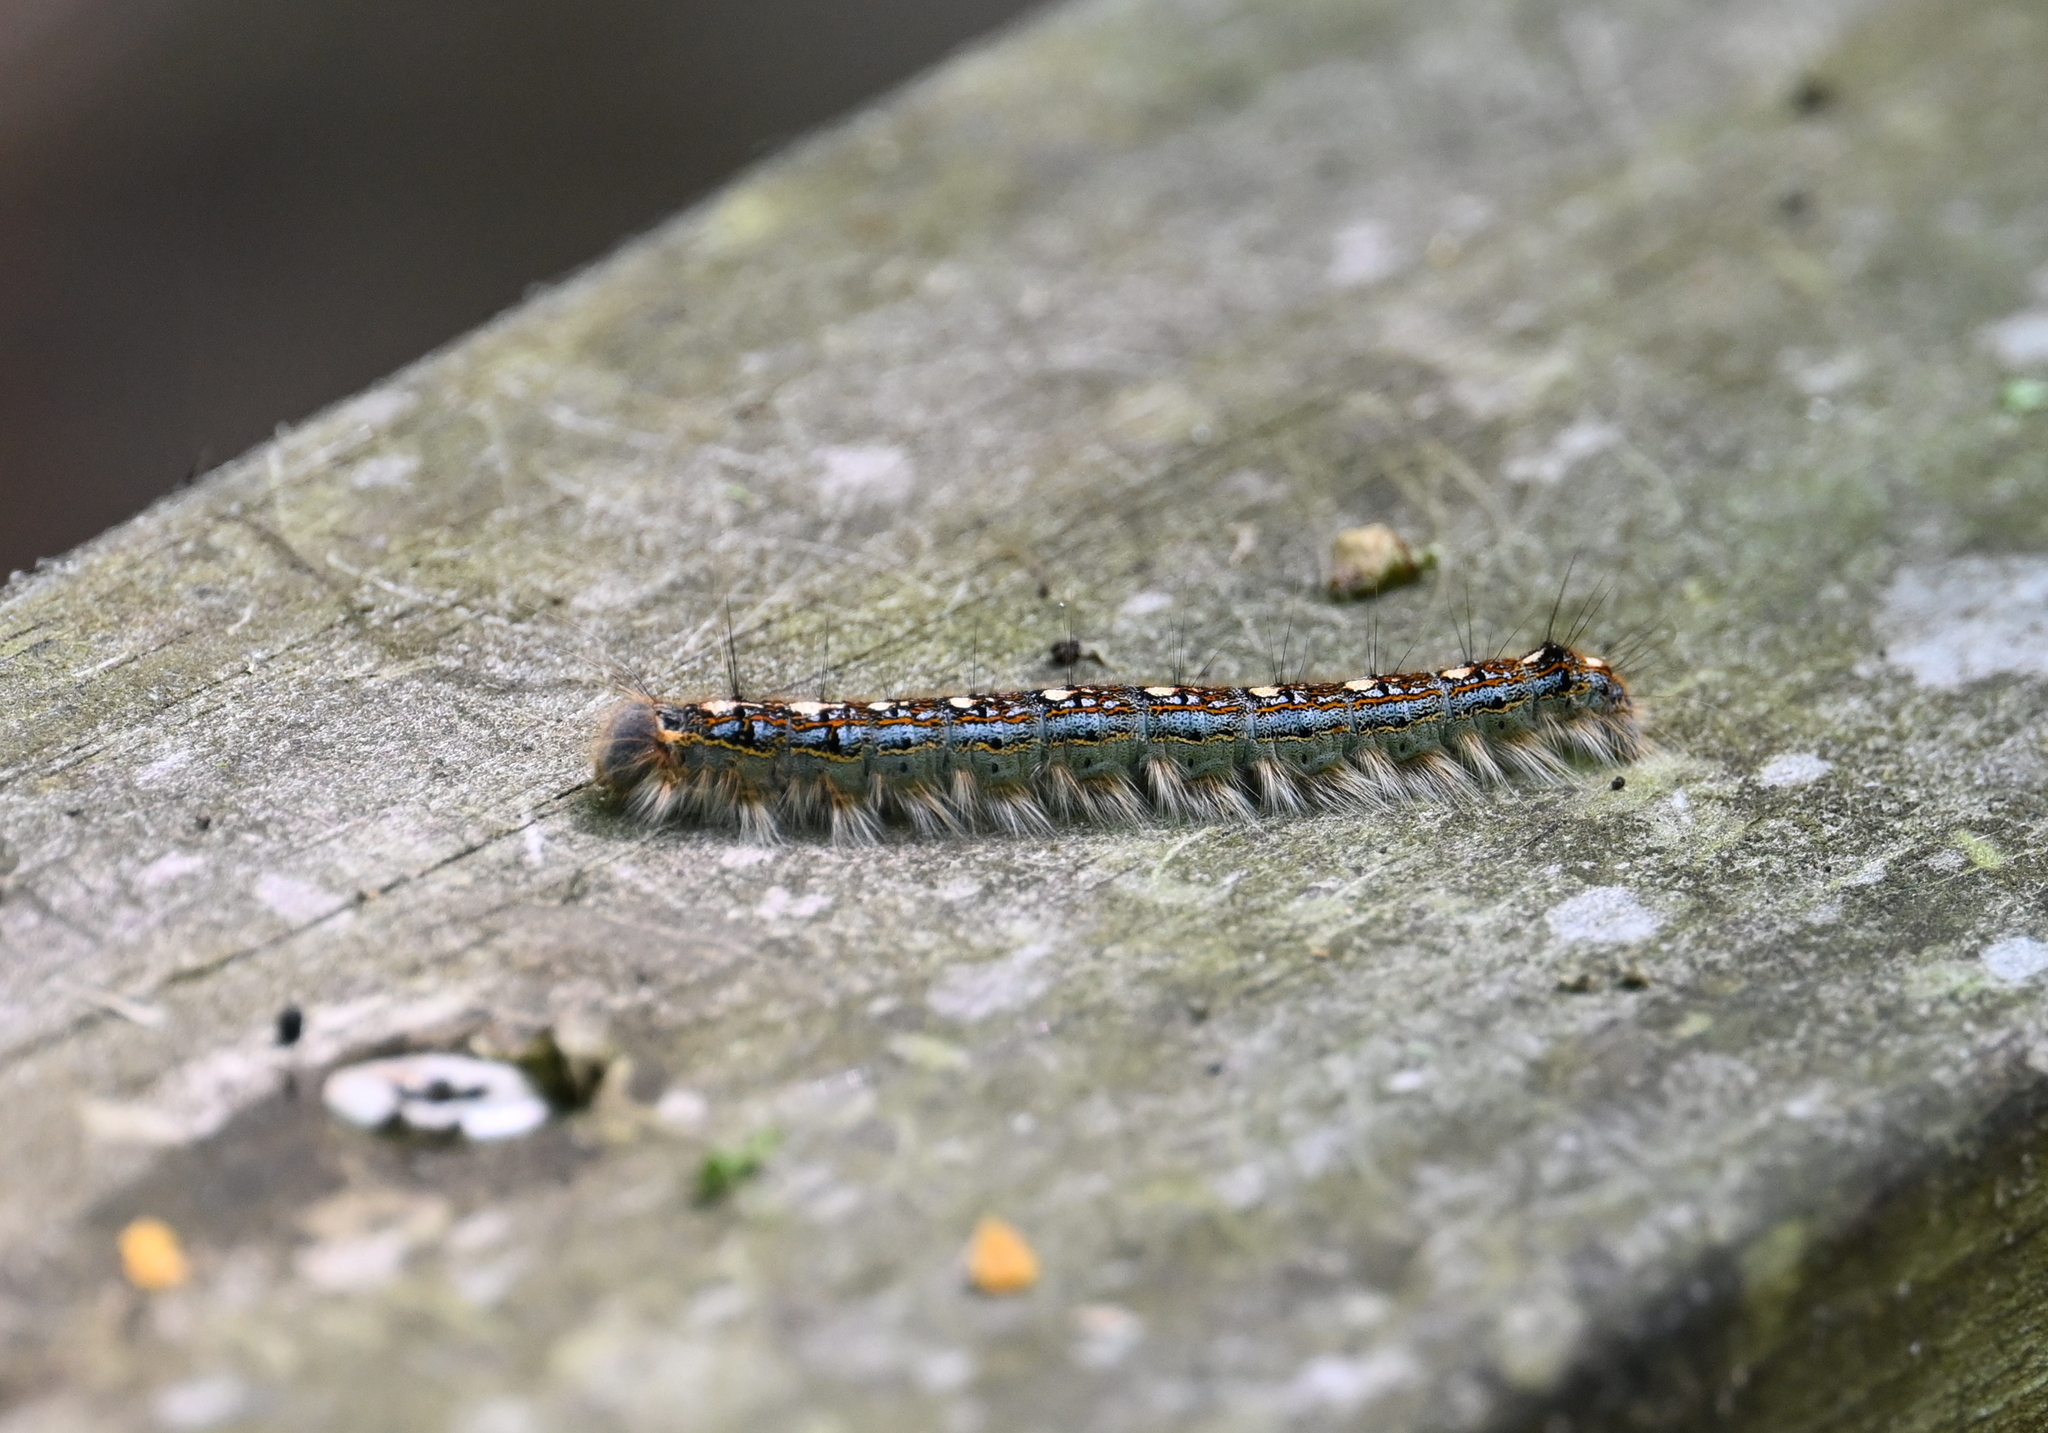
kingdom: Animalia
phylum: Arthropoda
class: Insecta
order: Lepidoptera
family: Lasiocampidae
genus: Malacosoma
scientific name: Malacosoma disstria
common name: Forest tent caterpillar
